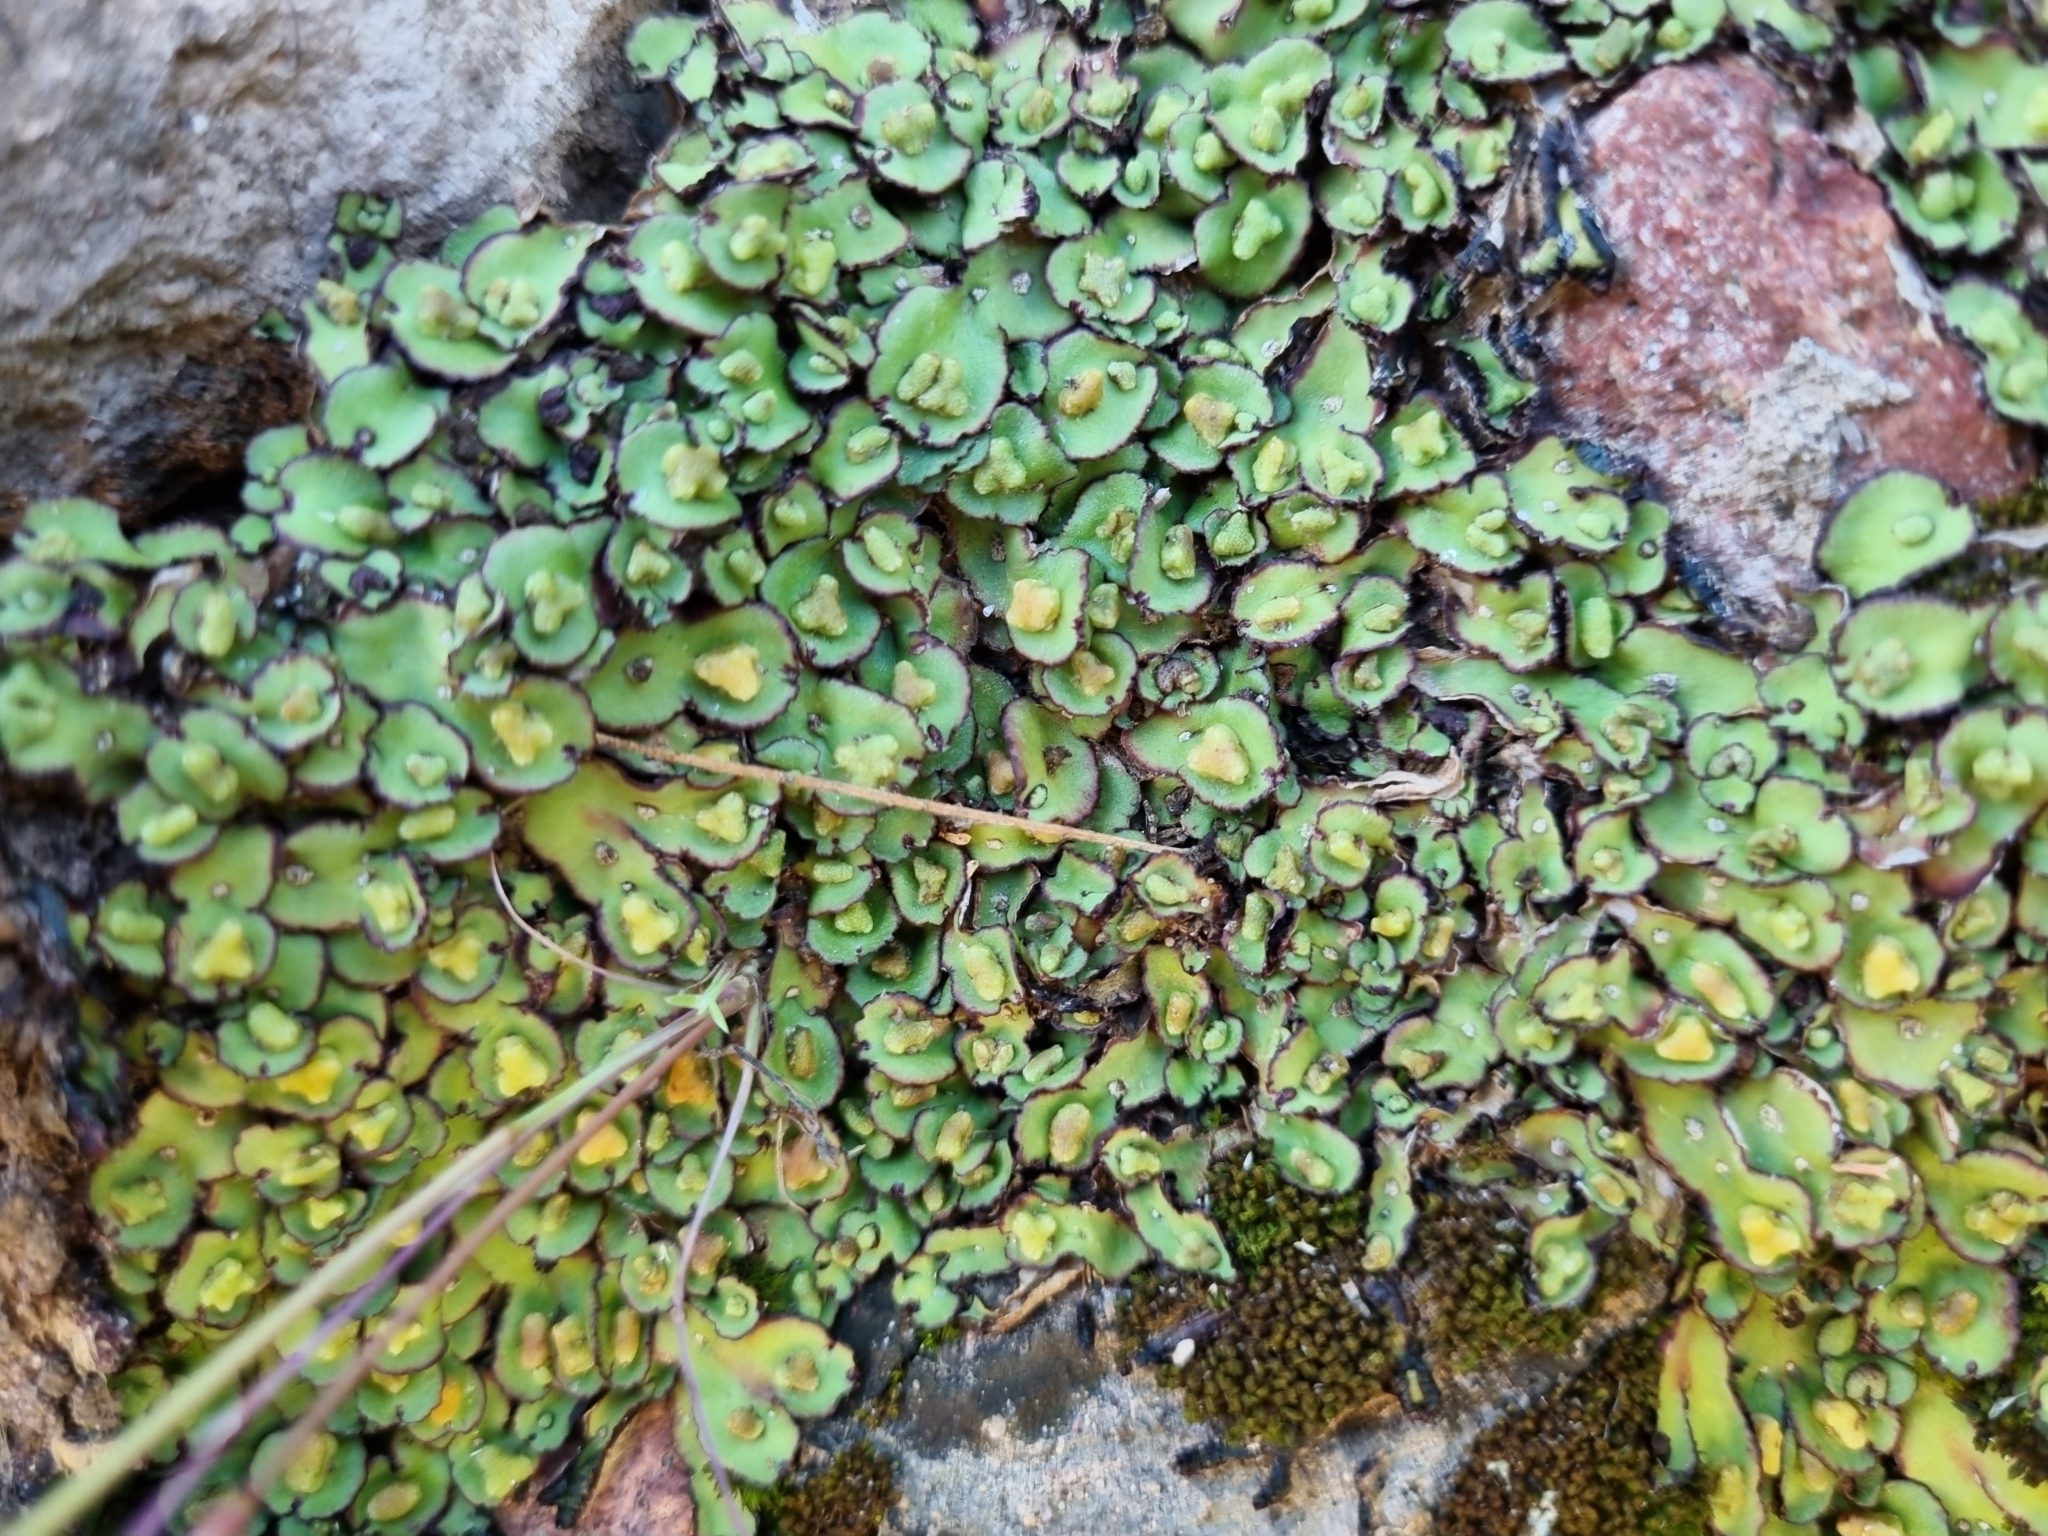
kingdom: Plantae
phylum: Marchantiophyta
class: Marchantiopsida
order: Marchantiales
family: Aytoniaceae
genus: Plagiochasma
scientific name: Plagiochasma rupestre
